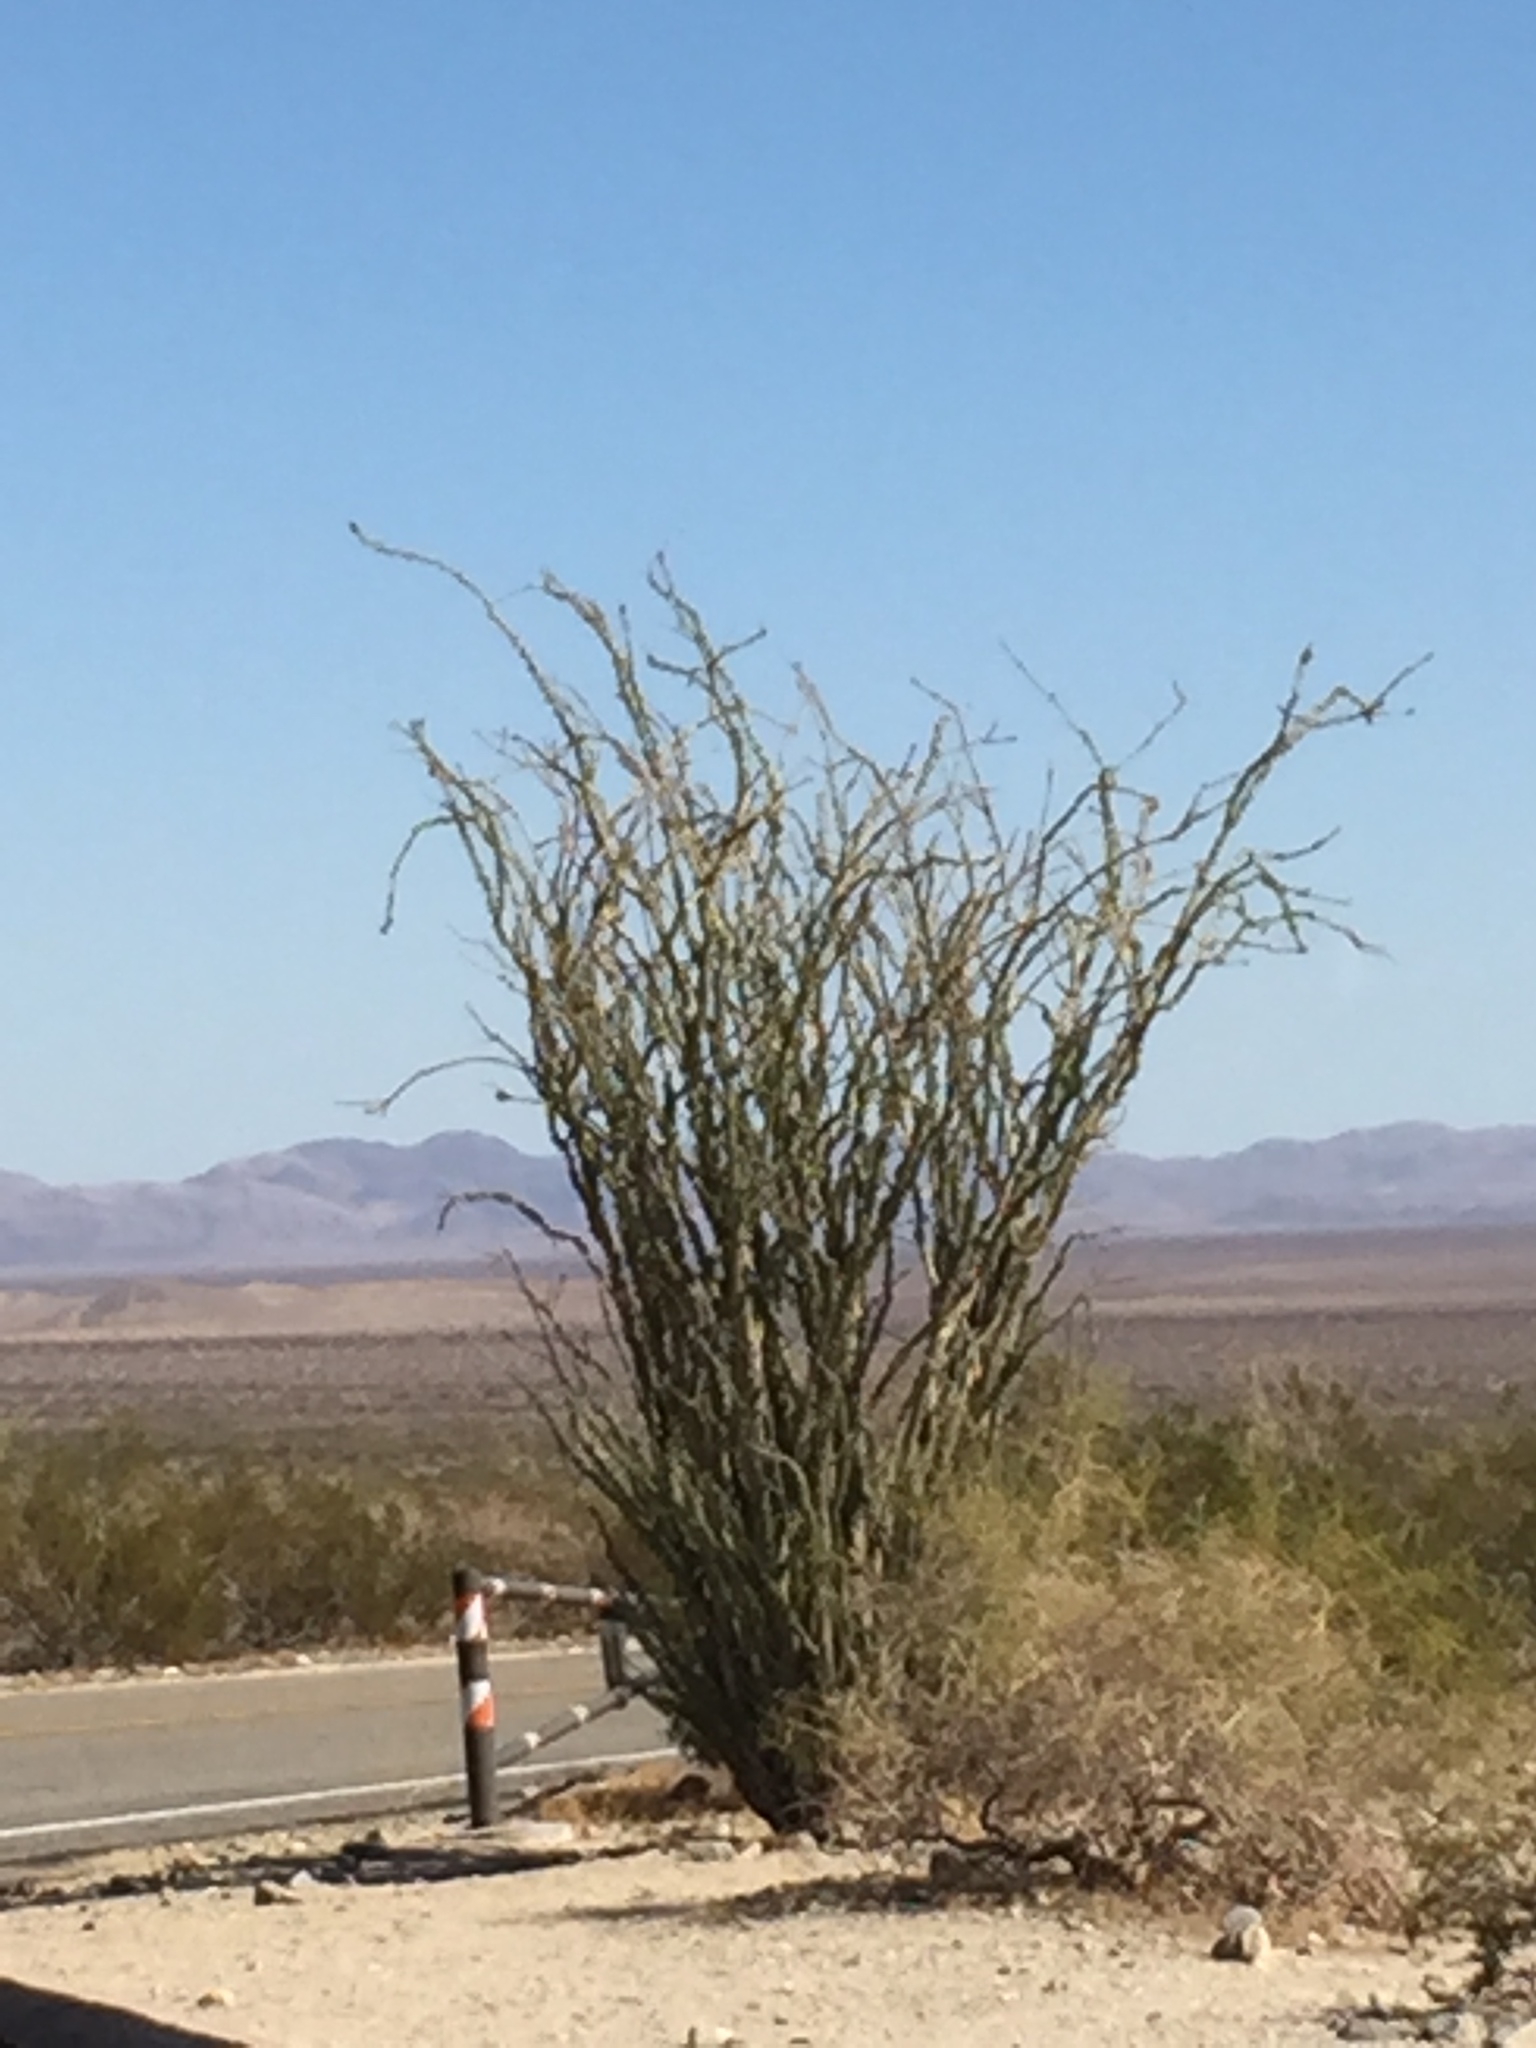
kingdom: Plantae
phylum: Tracheophyta
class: Magnoliopsida
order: Ericales
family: Fouquieriaceae
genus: Fouquieria
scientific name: Fouquieria splendens
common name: Vine-cactus
